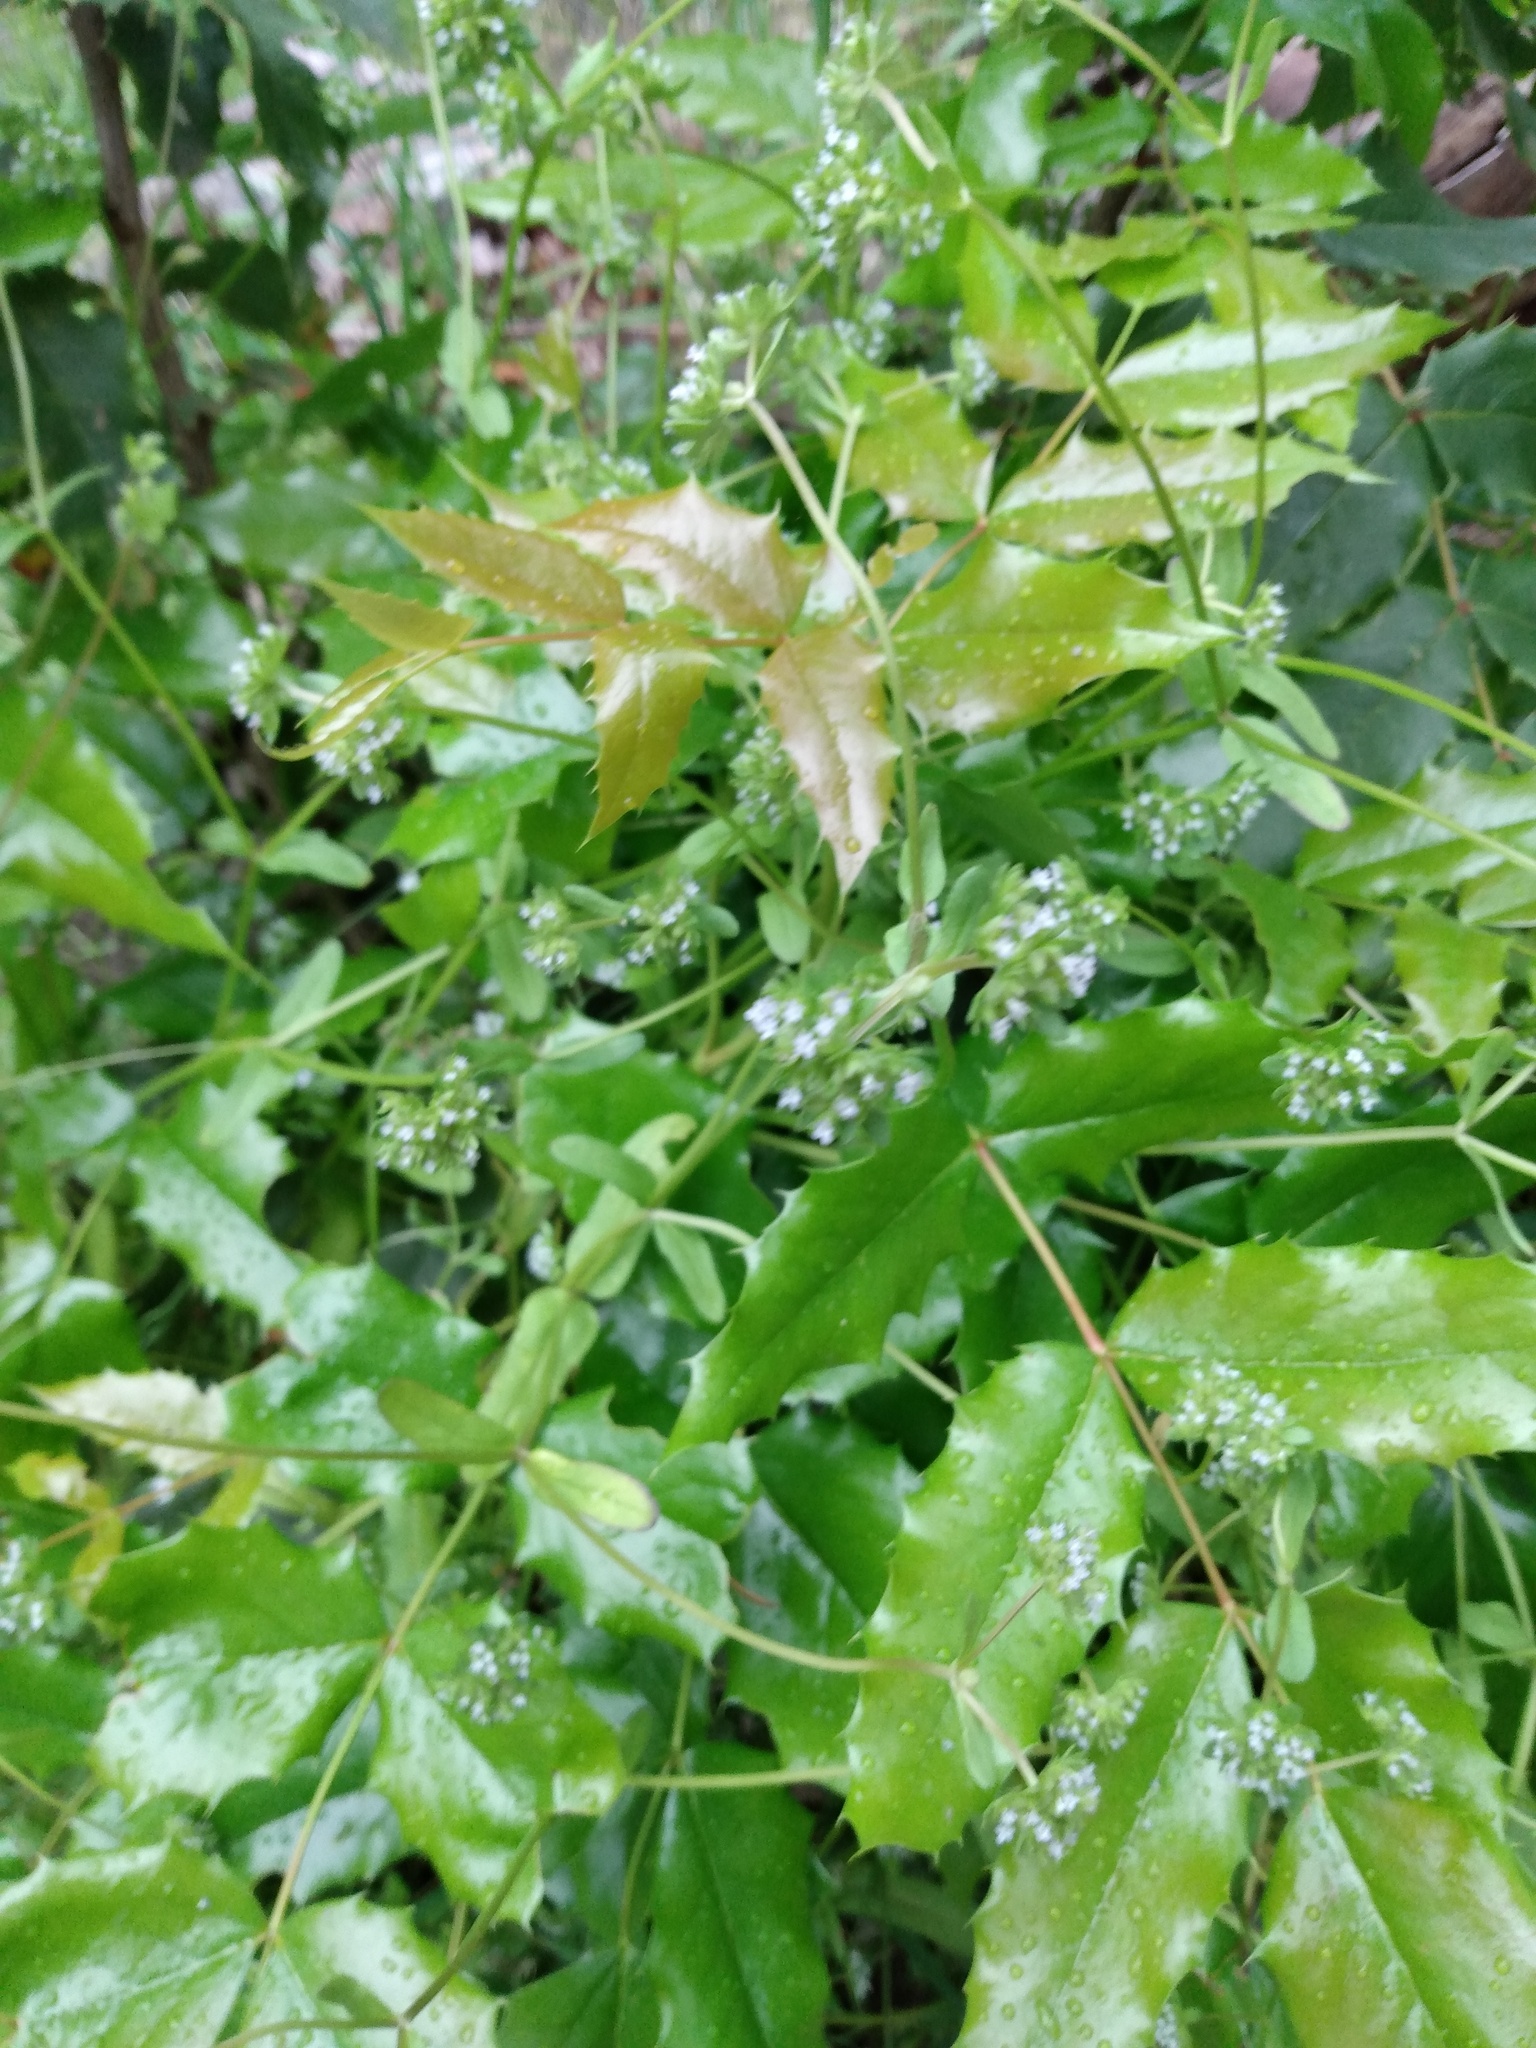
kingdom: Plantae
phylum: Tracheophyta
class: Magnoliopsida
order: Ranunculales
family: Berberidaceae
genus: Mahonia
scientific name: Mahonia aquifolium
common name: Oregon-grape
